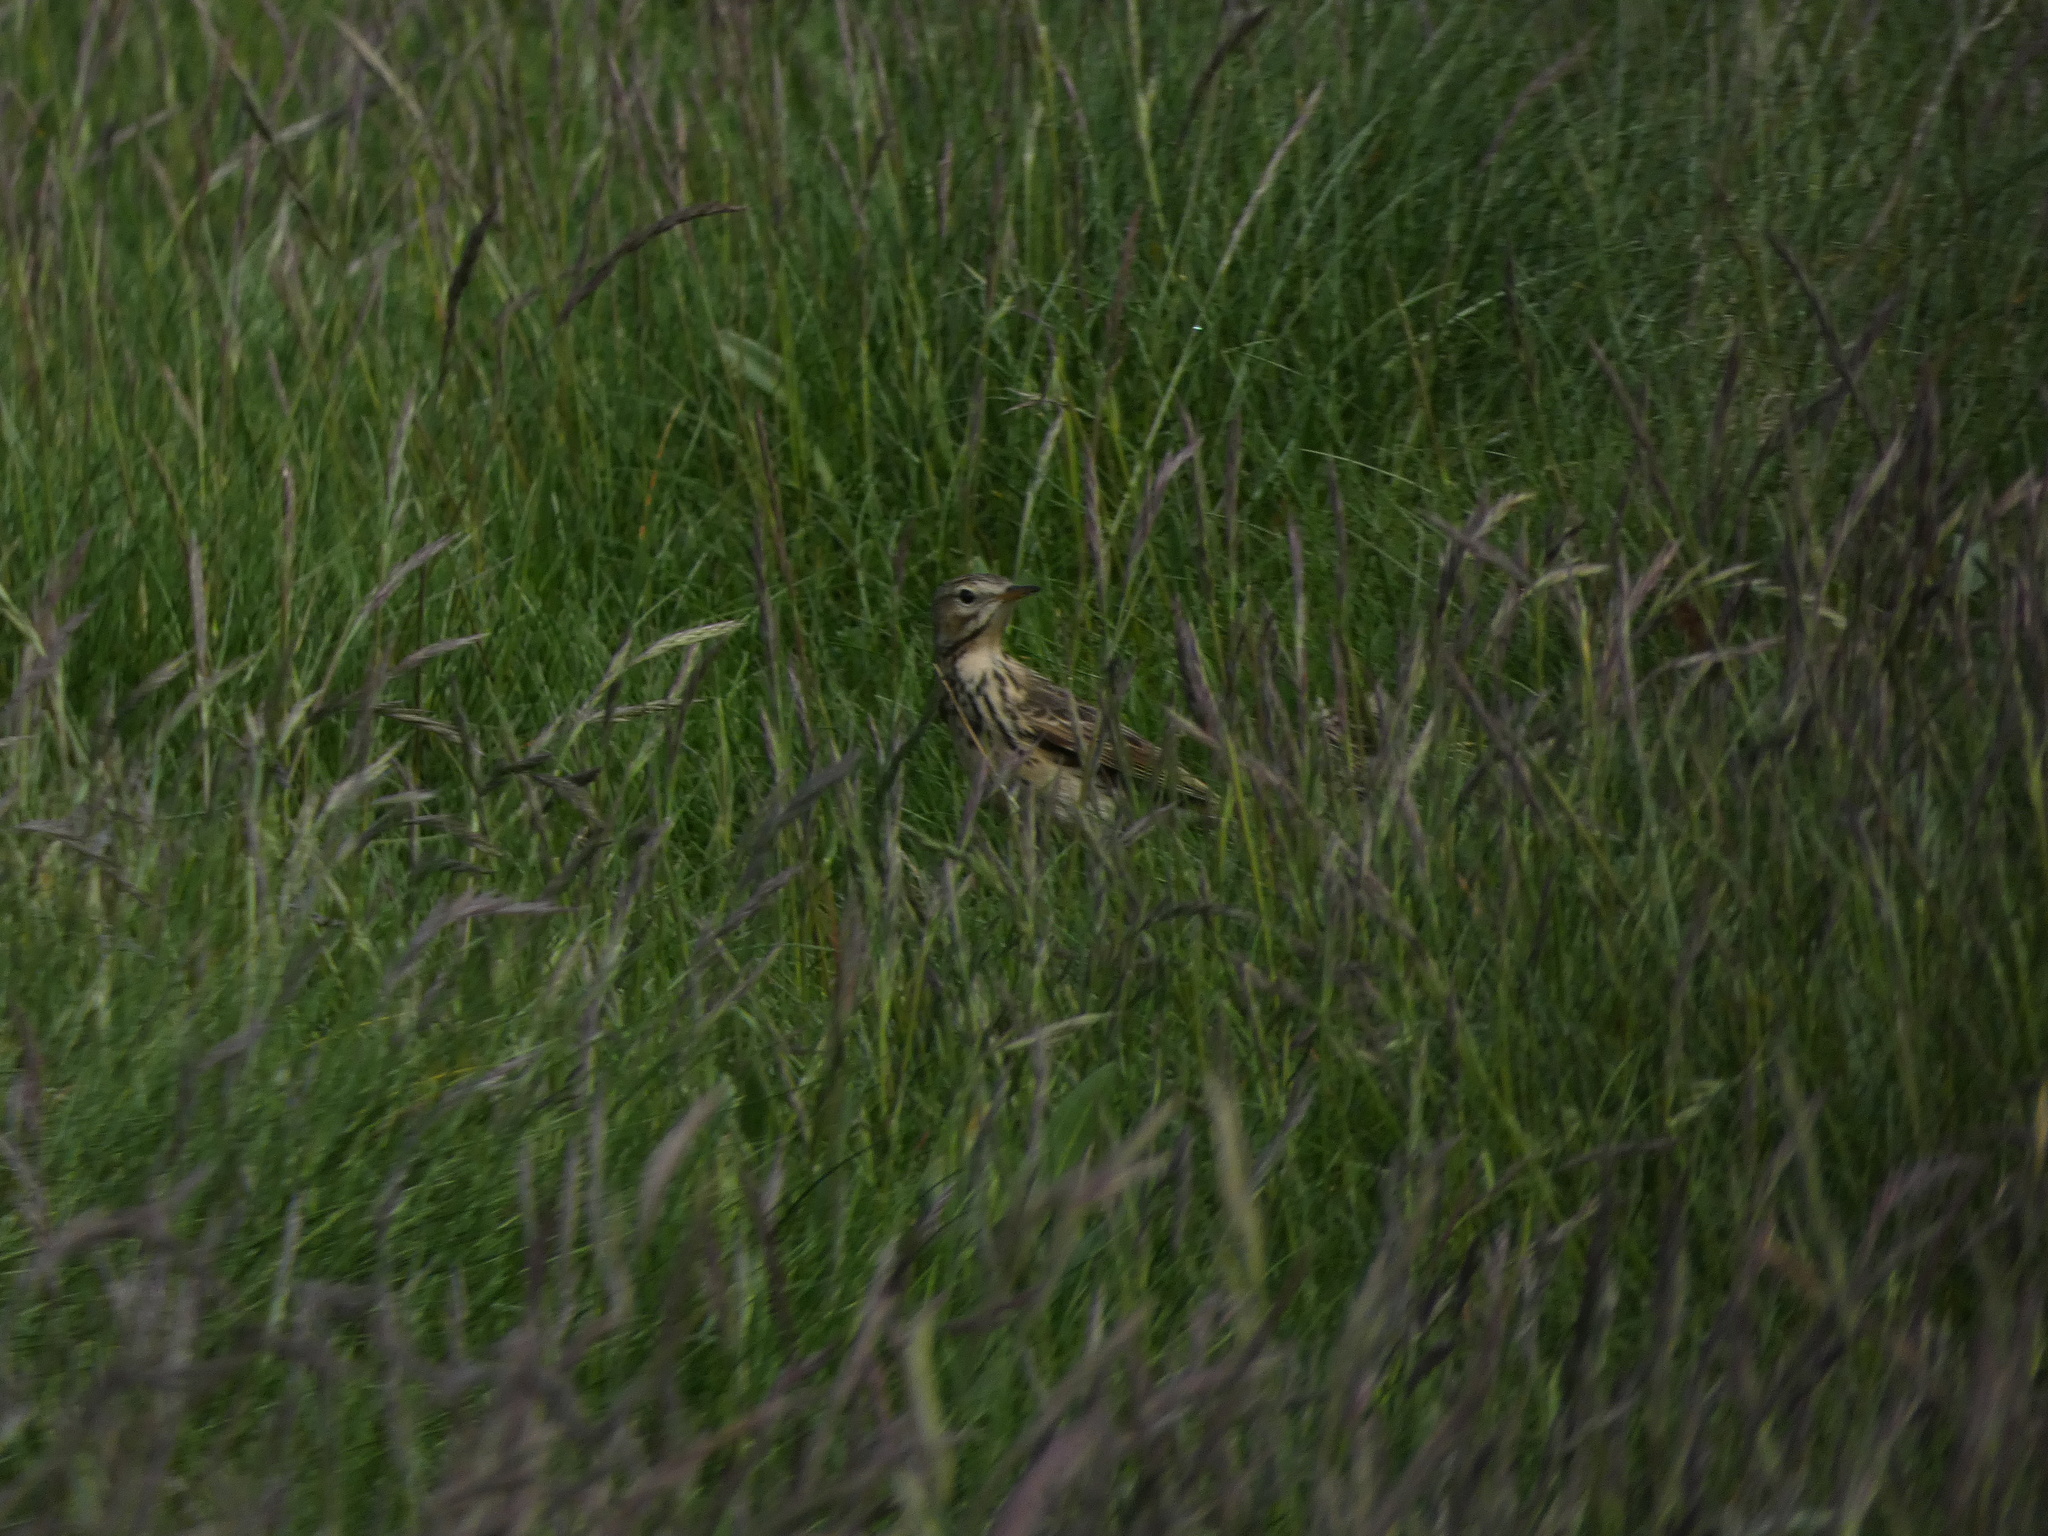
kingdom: Animalia
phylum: Chordata
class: Aves
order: Passeriformes
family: Motacillidae
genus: Anthus
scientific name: Anthus trivialis
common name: Tree pipit
